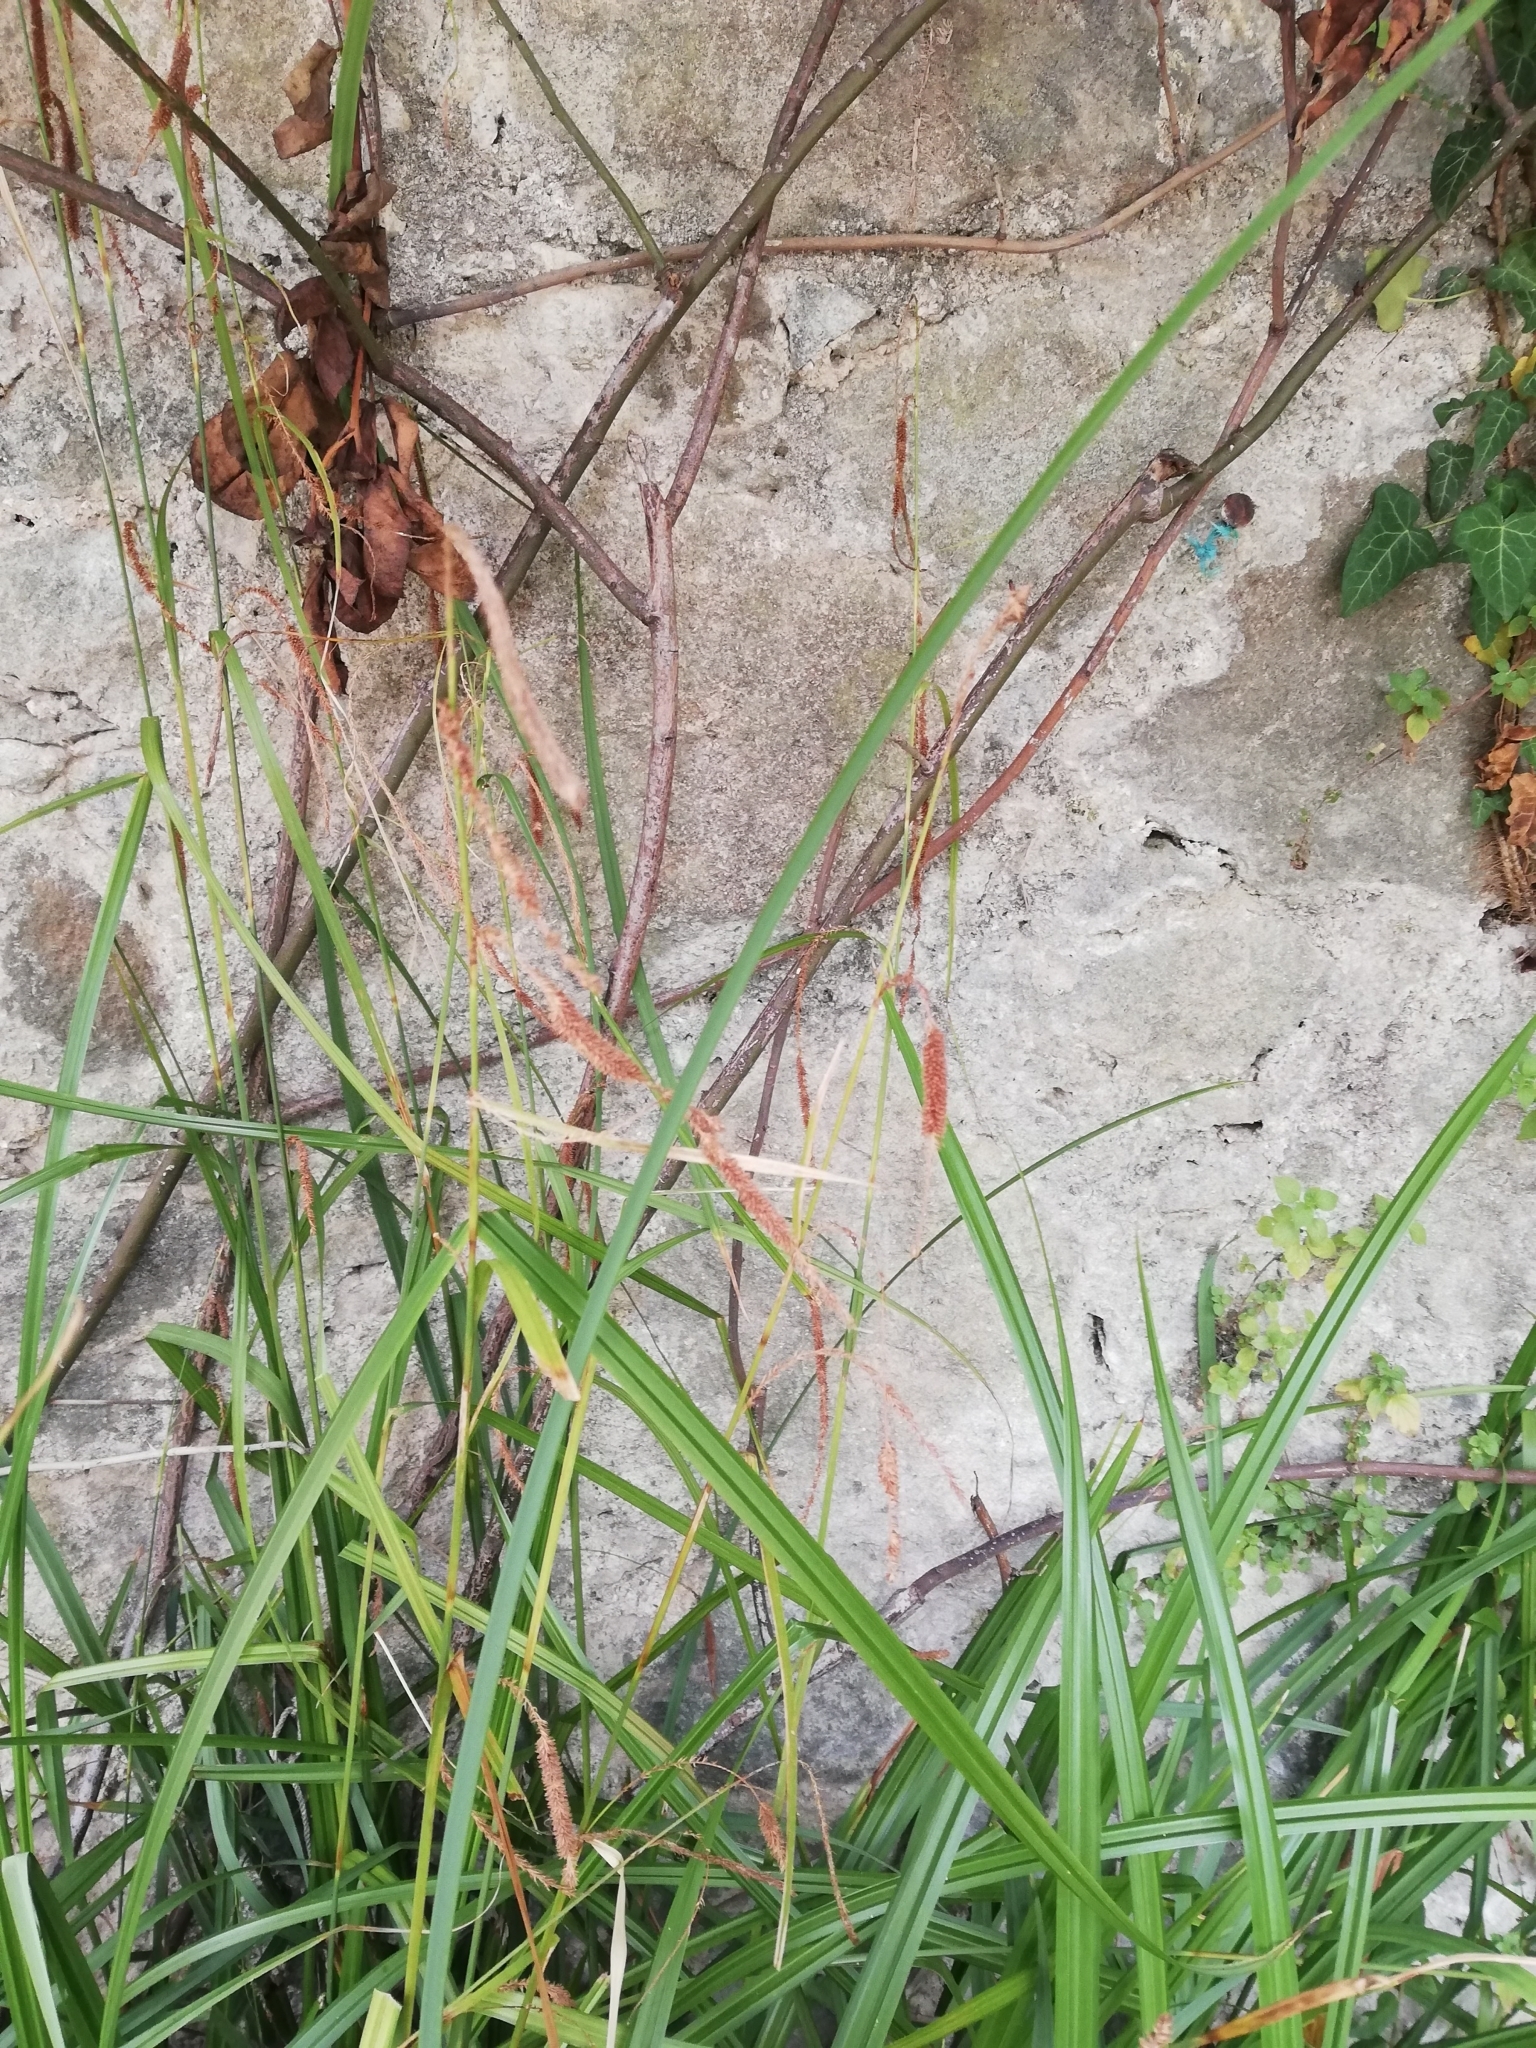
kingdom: Plantae
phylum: Tracheophyta
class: Liliopsida
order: Poales
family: Cyperaceae
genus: Carex
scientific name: Carex pendula
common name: Pendulous sedge
